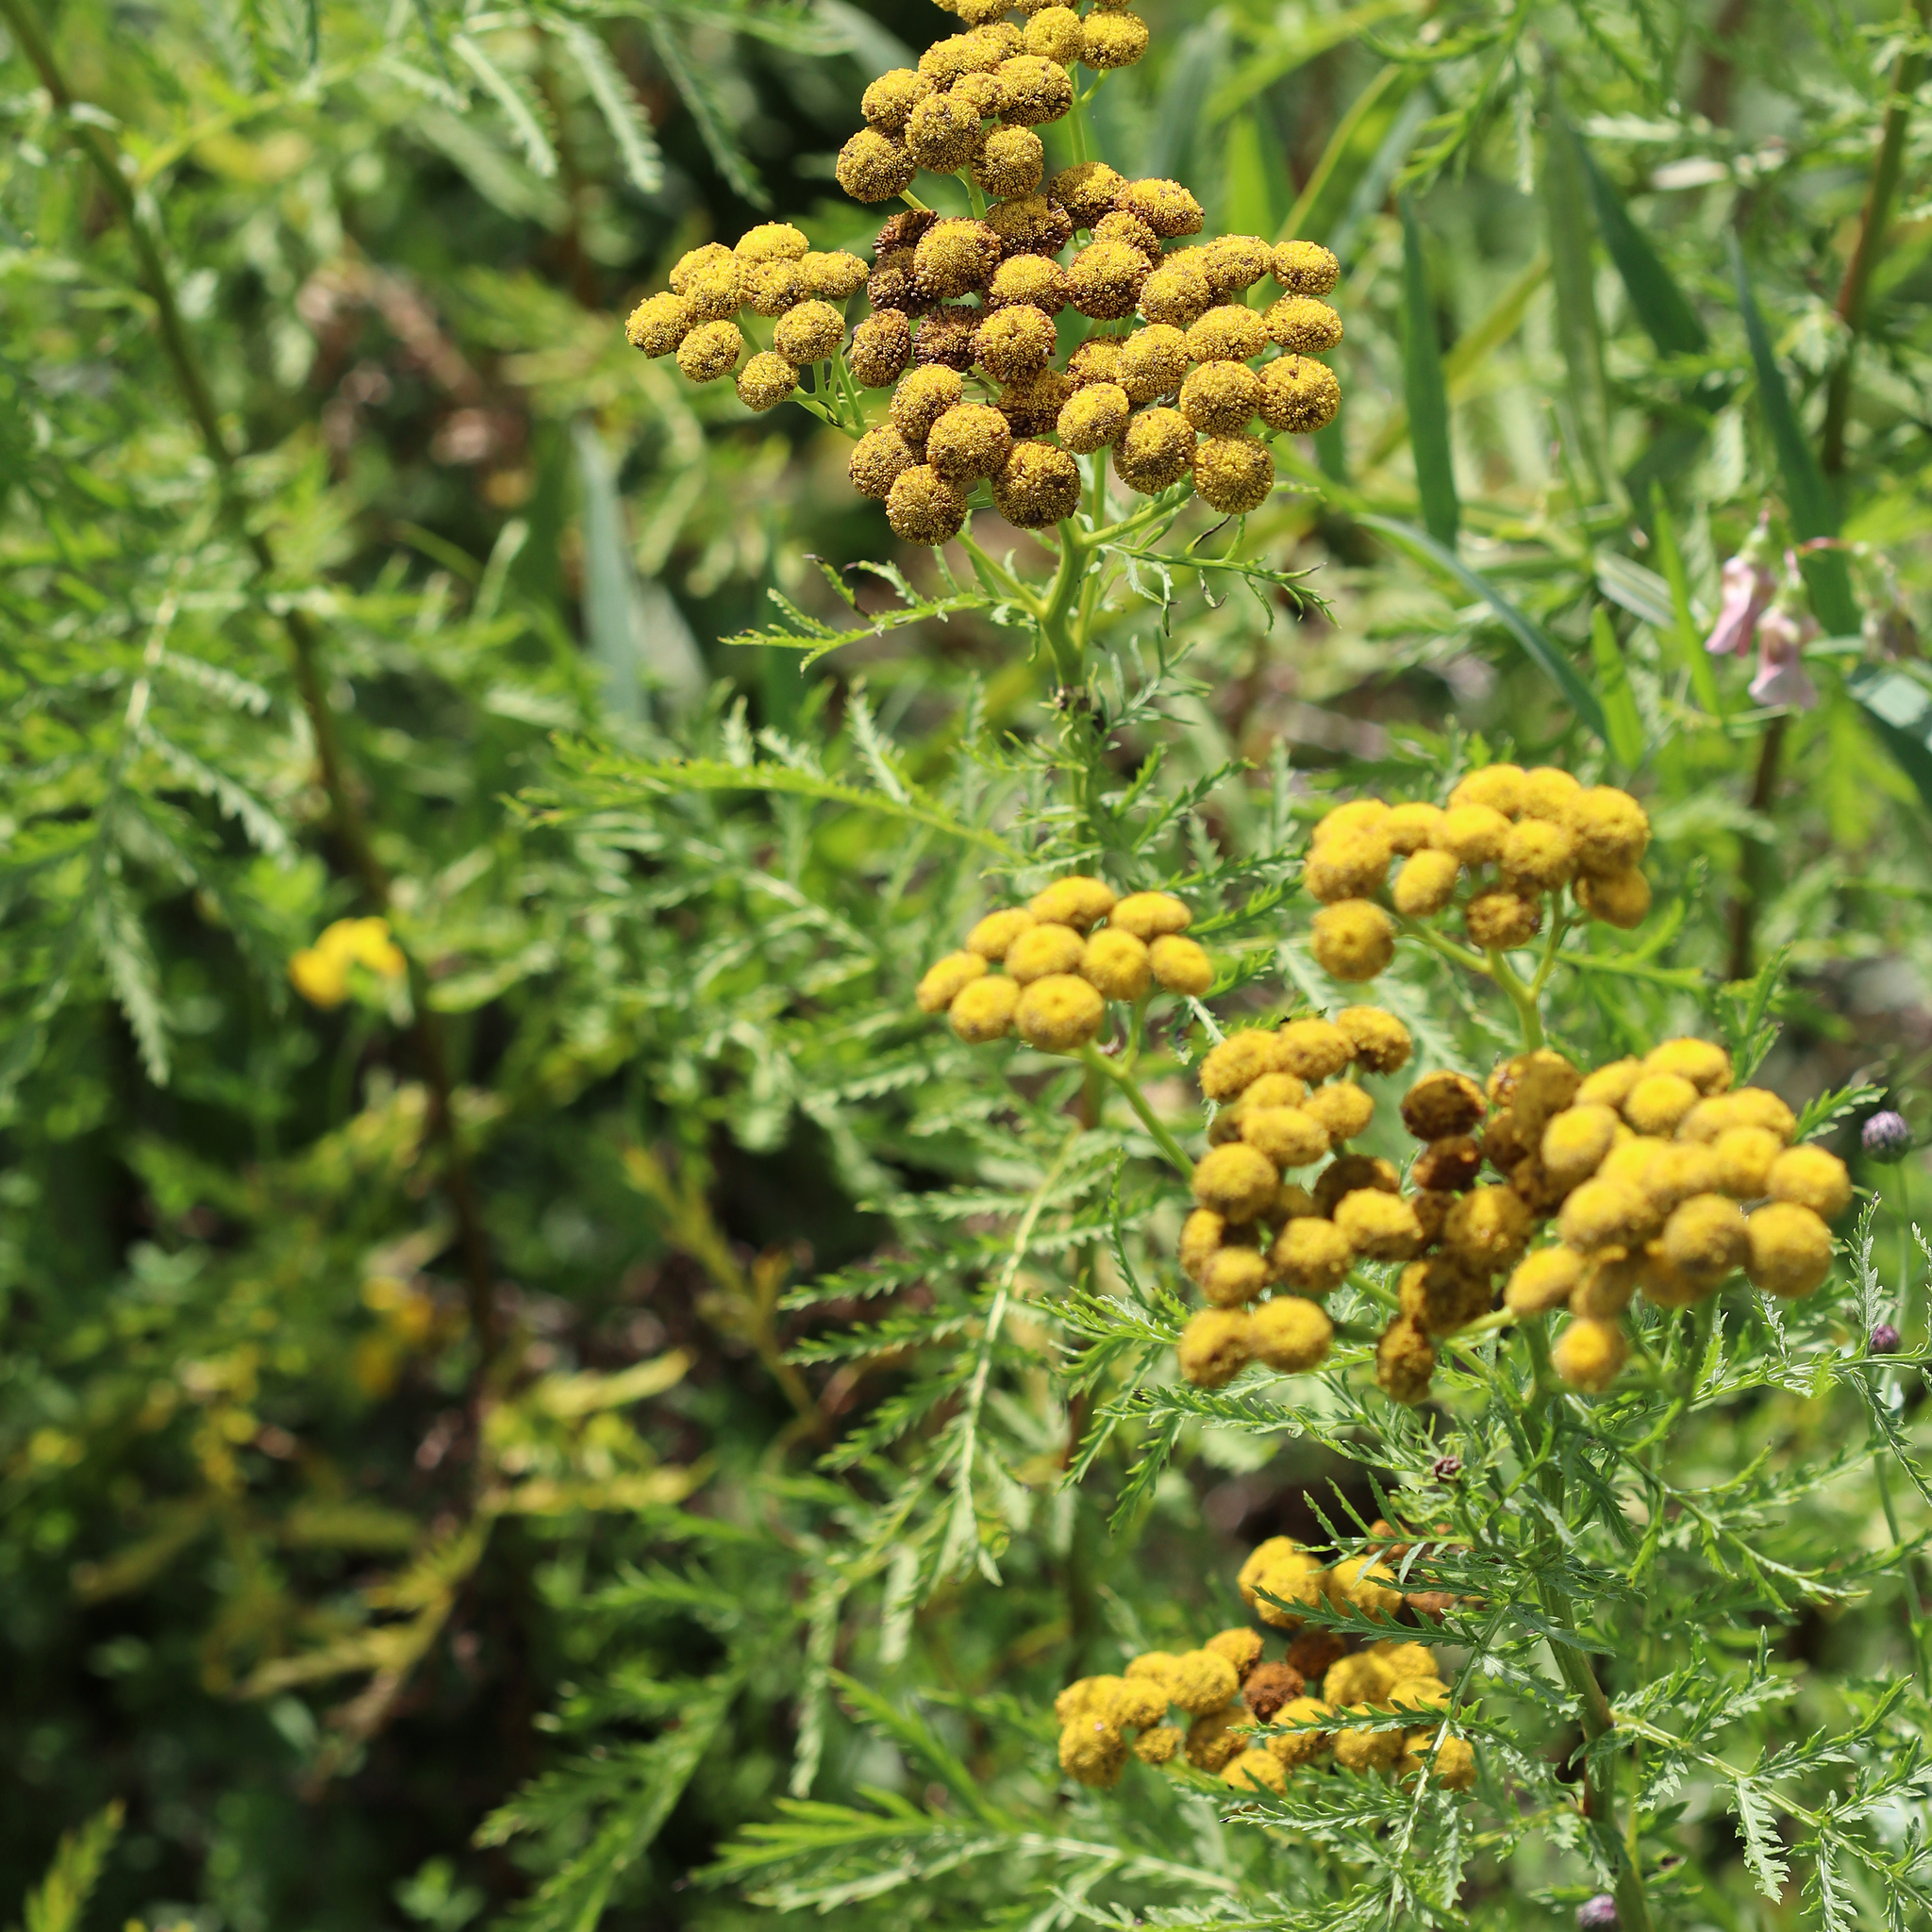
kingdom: Plantae
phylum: Tracheophyta
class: Magnoliopsida
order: Asterales
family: Asteraceae
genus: Tanacetum
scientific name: Tanacetum vulgare
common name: Common tansy
